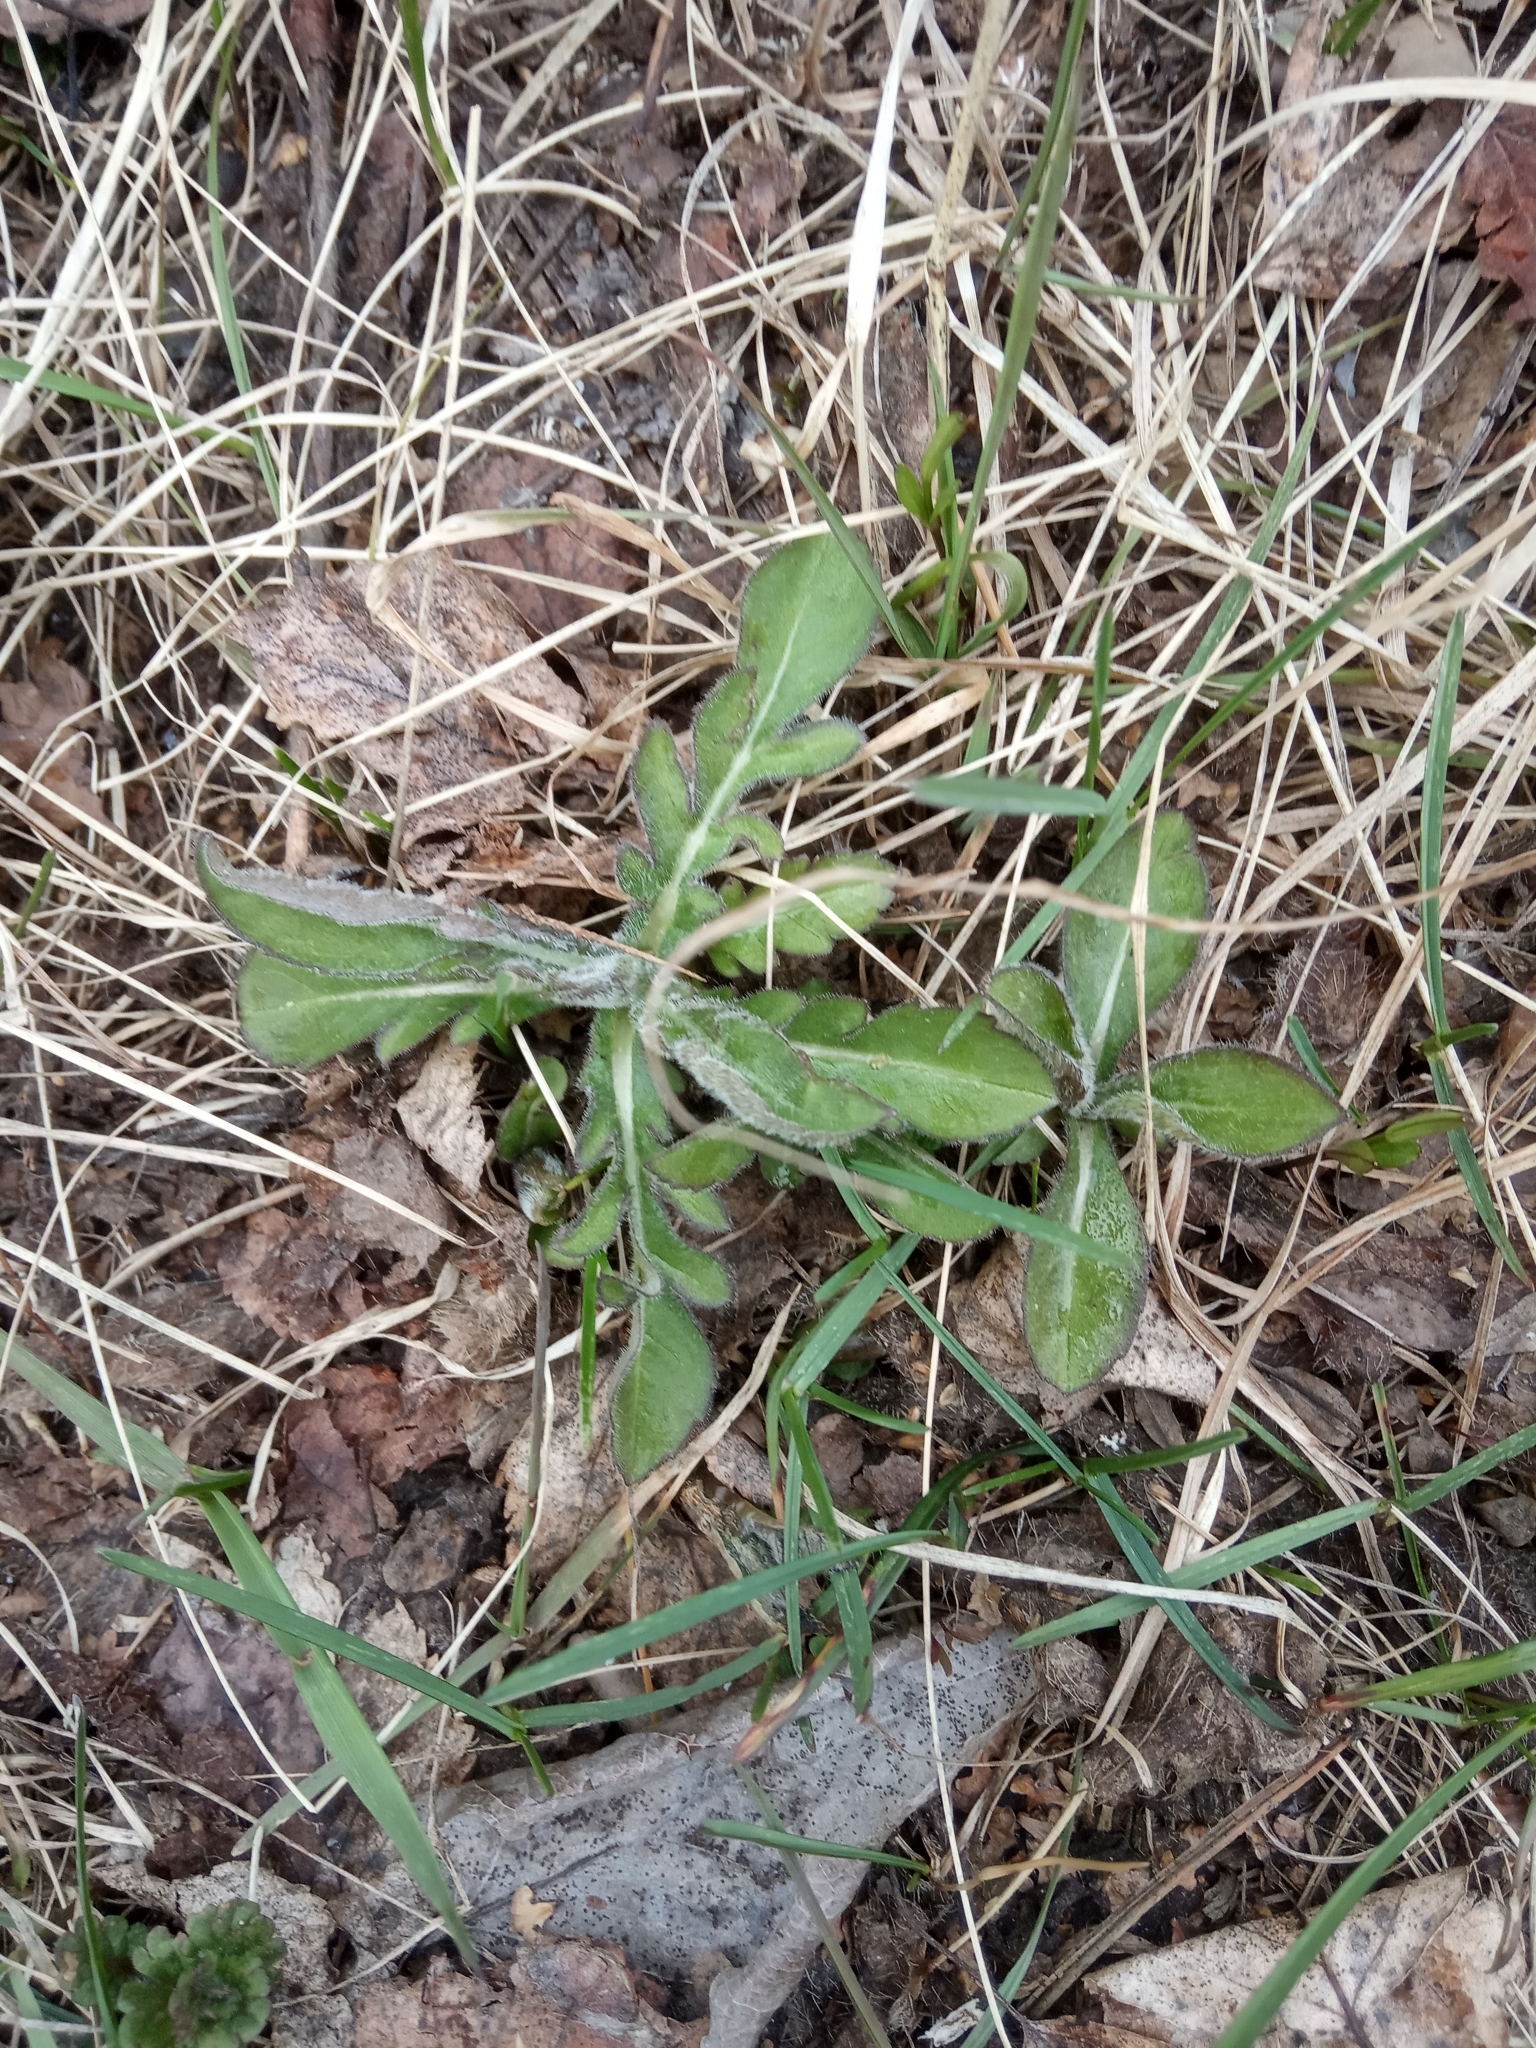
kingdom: Plantae
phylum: Tracheophyta
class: Magnoliopsida
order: Dipsacales
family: Caprifoliaceae
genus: Knautia
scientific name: Knautia arvensis
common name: Field scabiosa
